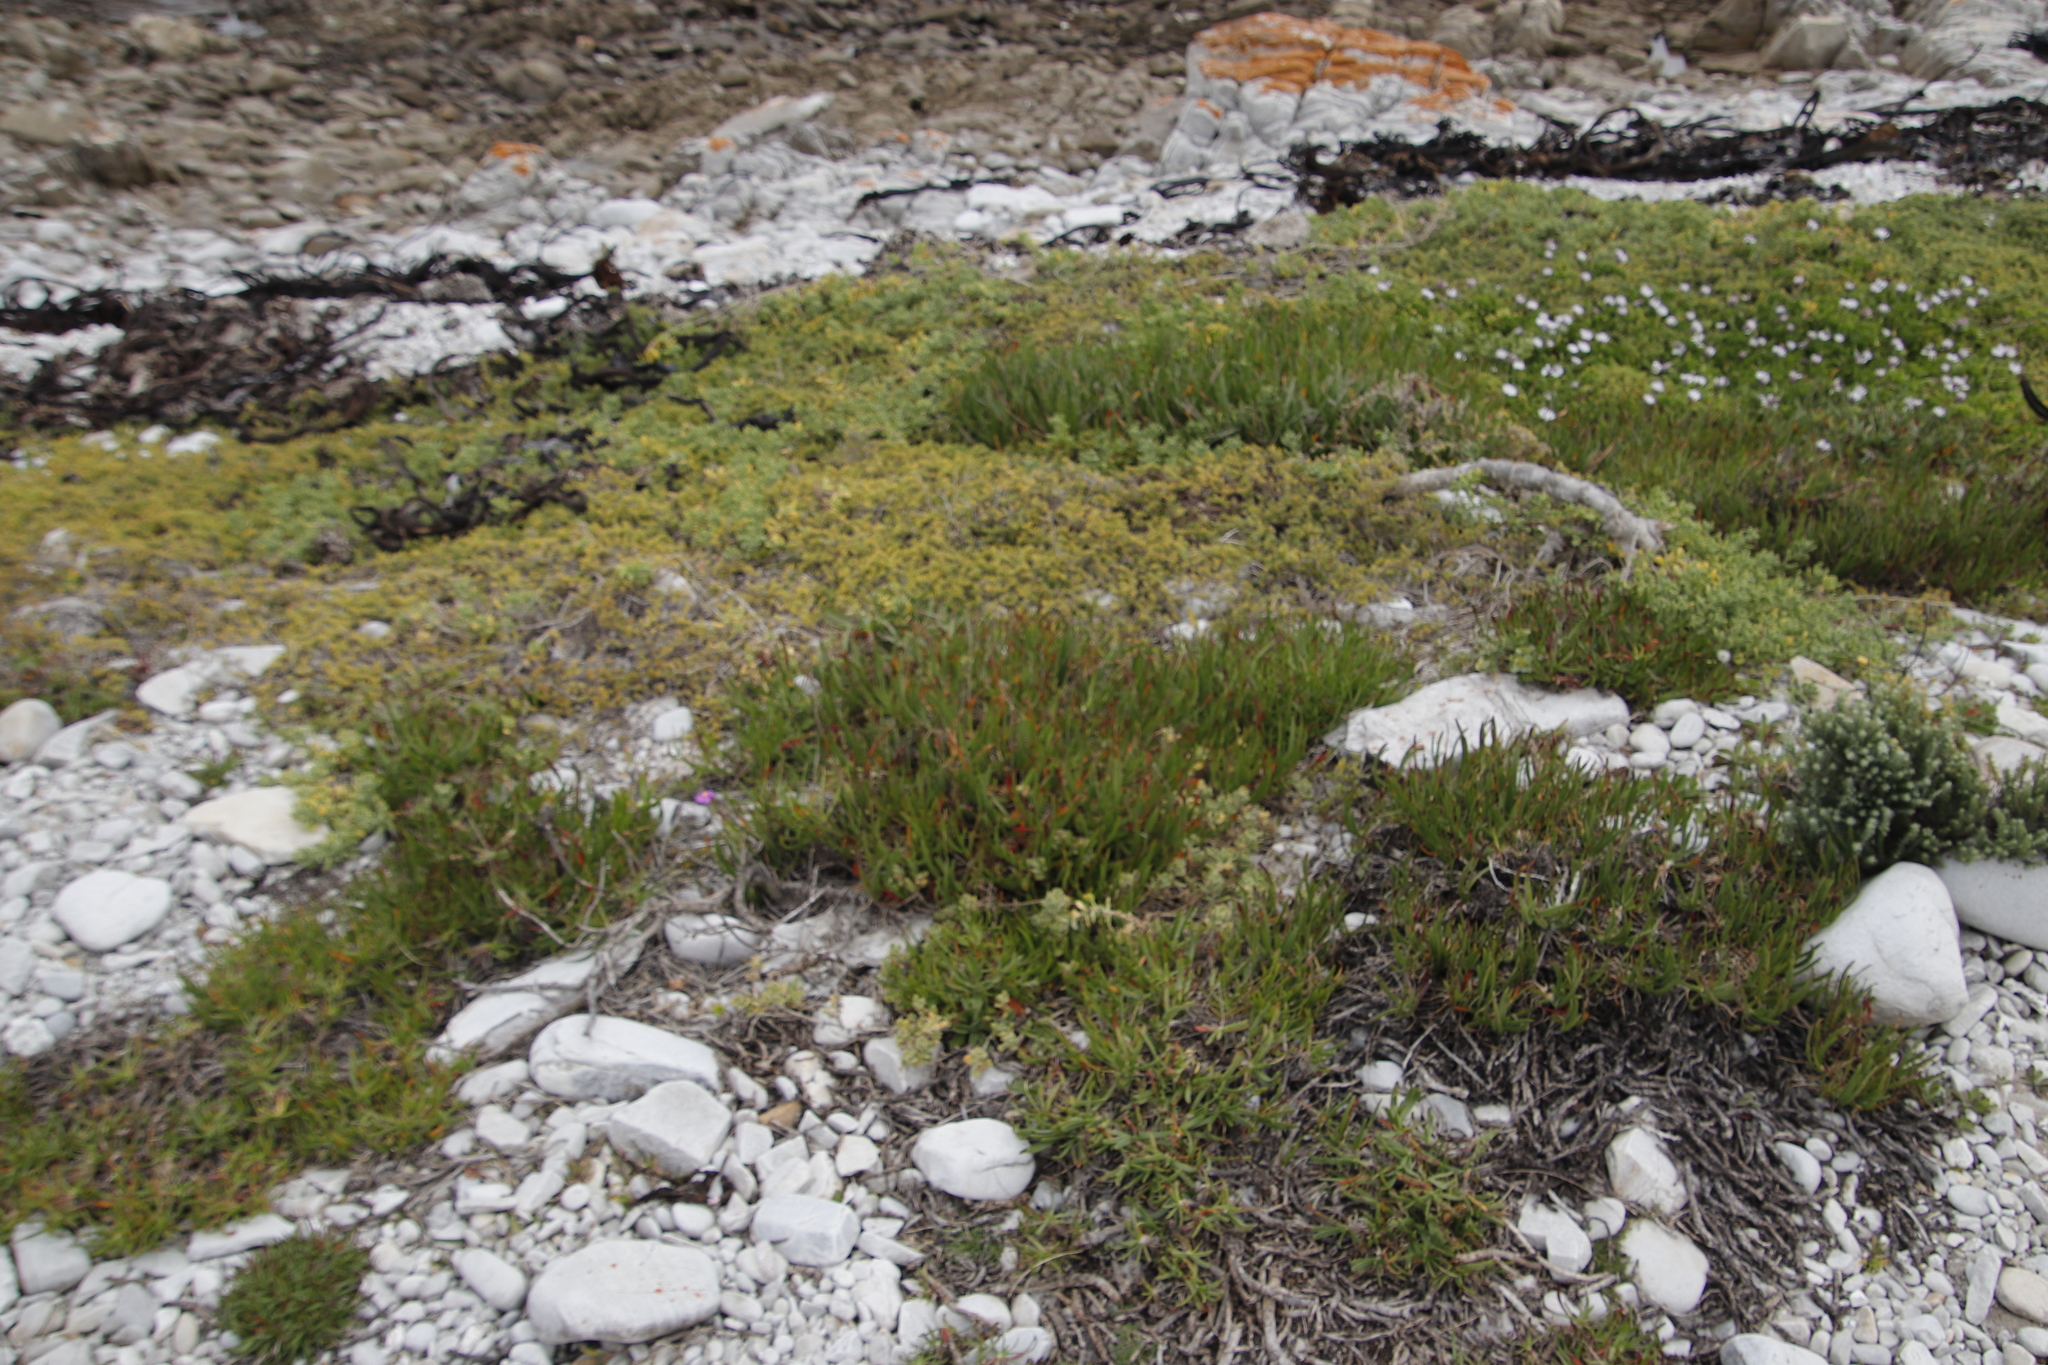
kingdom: Plantae
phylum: Tracheophyta
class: Magnoliopsida
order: Lamiales
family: Plantaginaceae
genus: Plantago
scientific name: Plantago carnosa
